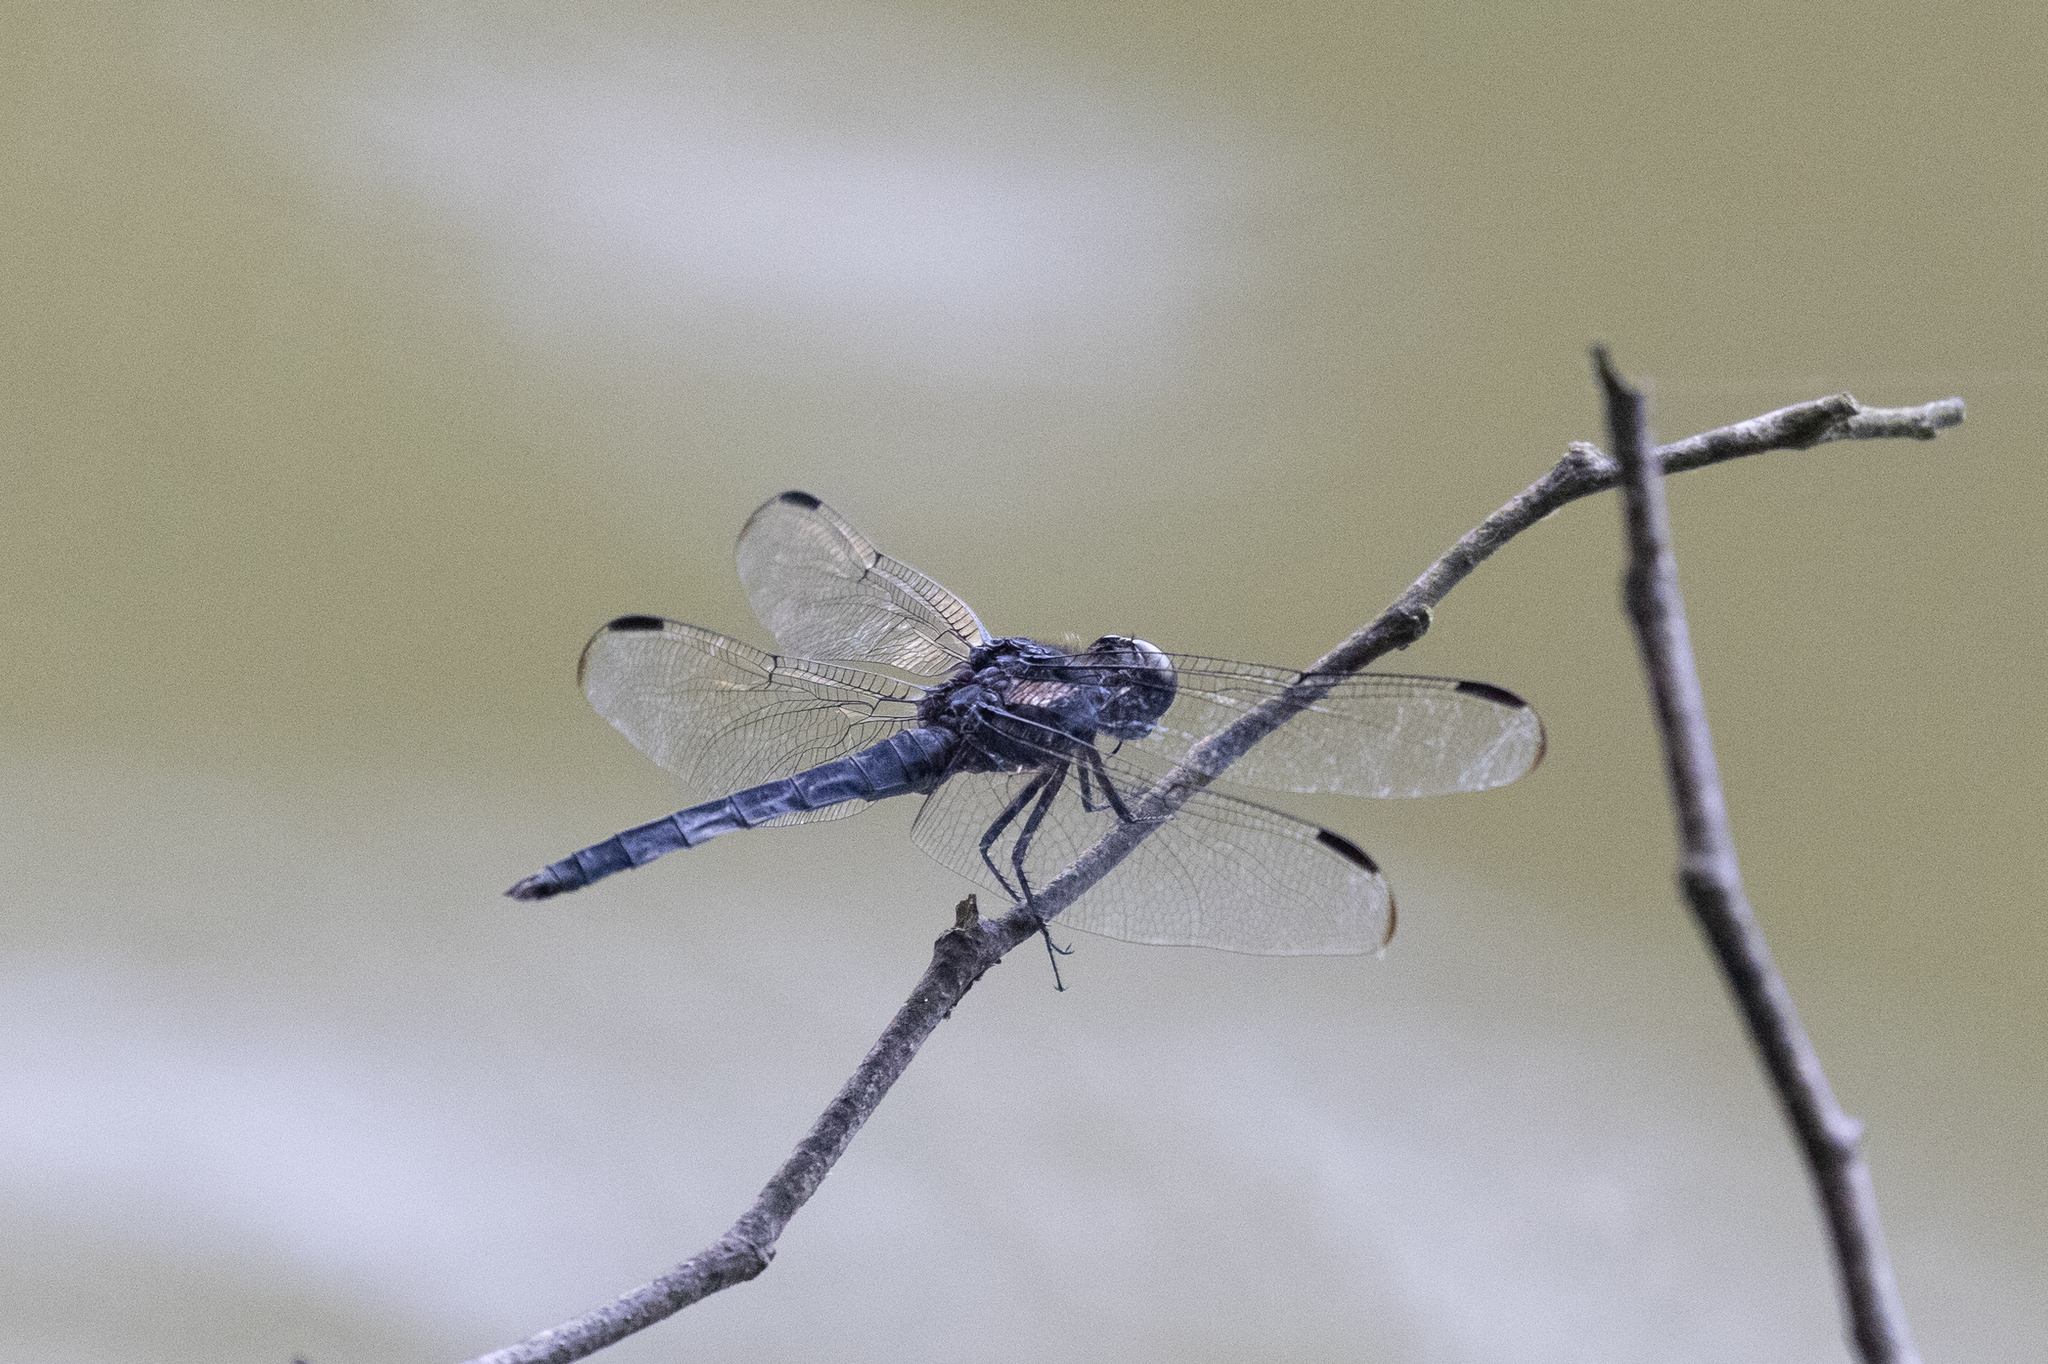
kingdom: Animalia
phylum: Arthropoda
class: Insecta
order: Odonata
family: Libellulidae
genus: Libellula
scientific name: Libellula incesta
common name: Slaty skimmer
